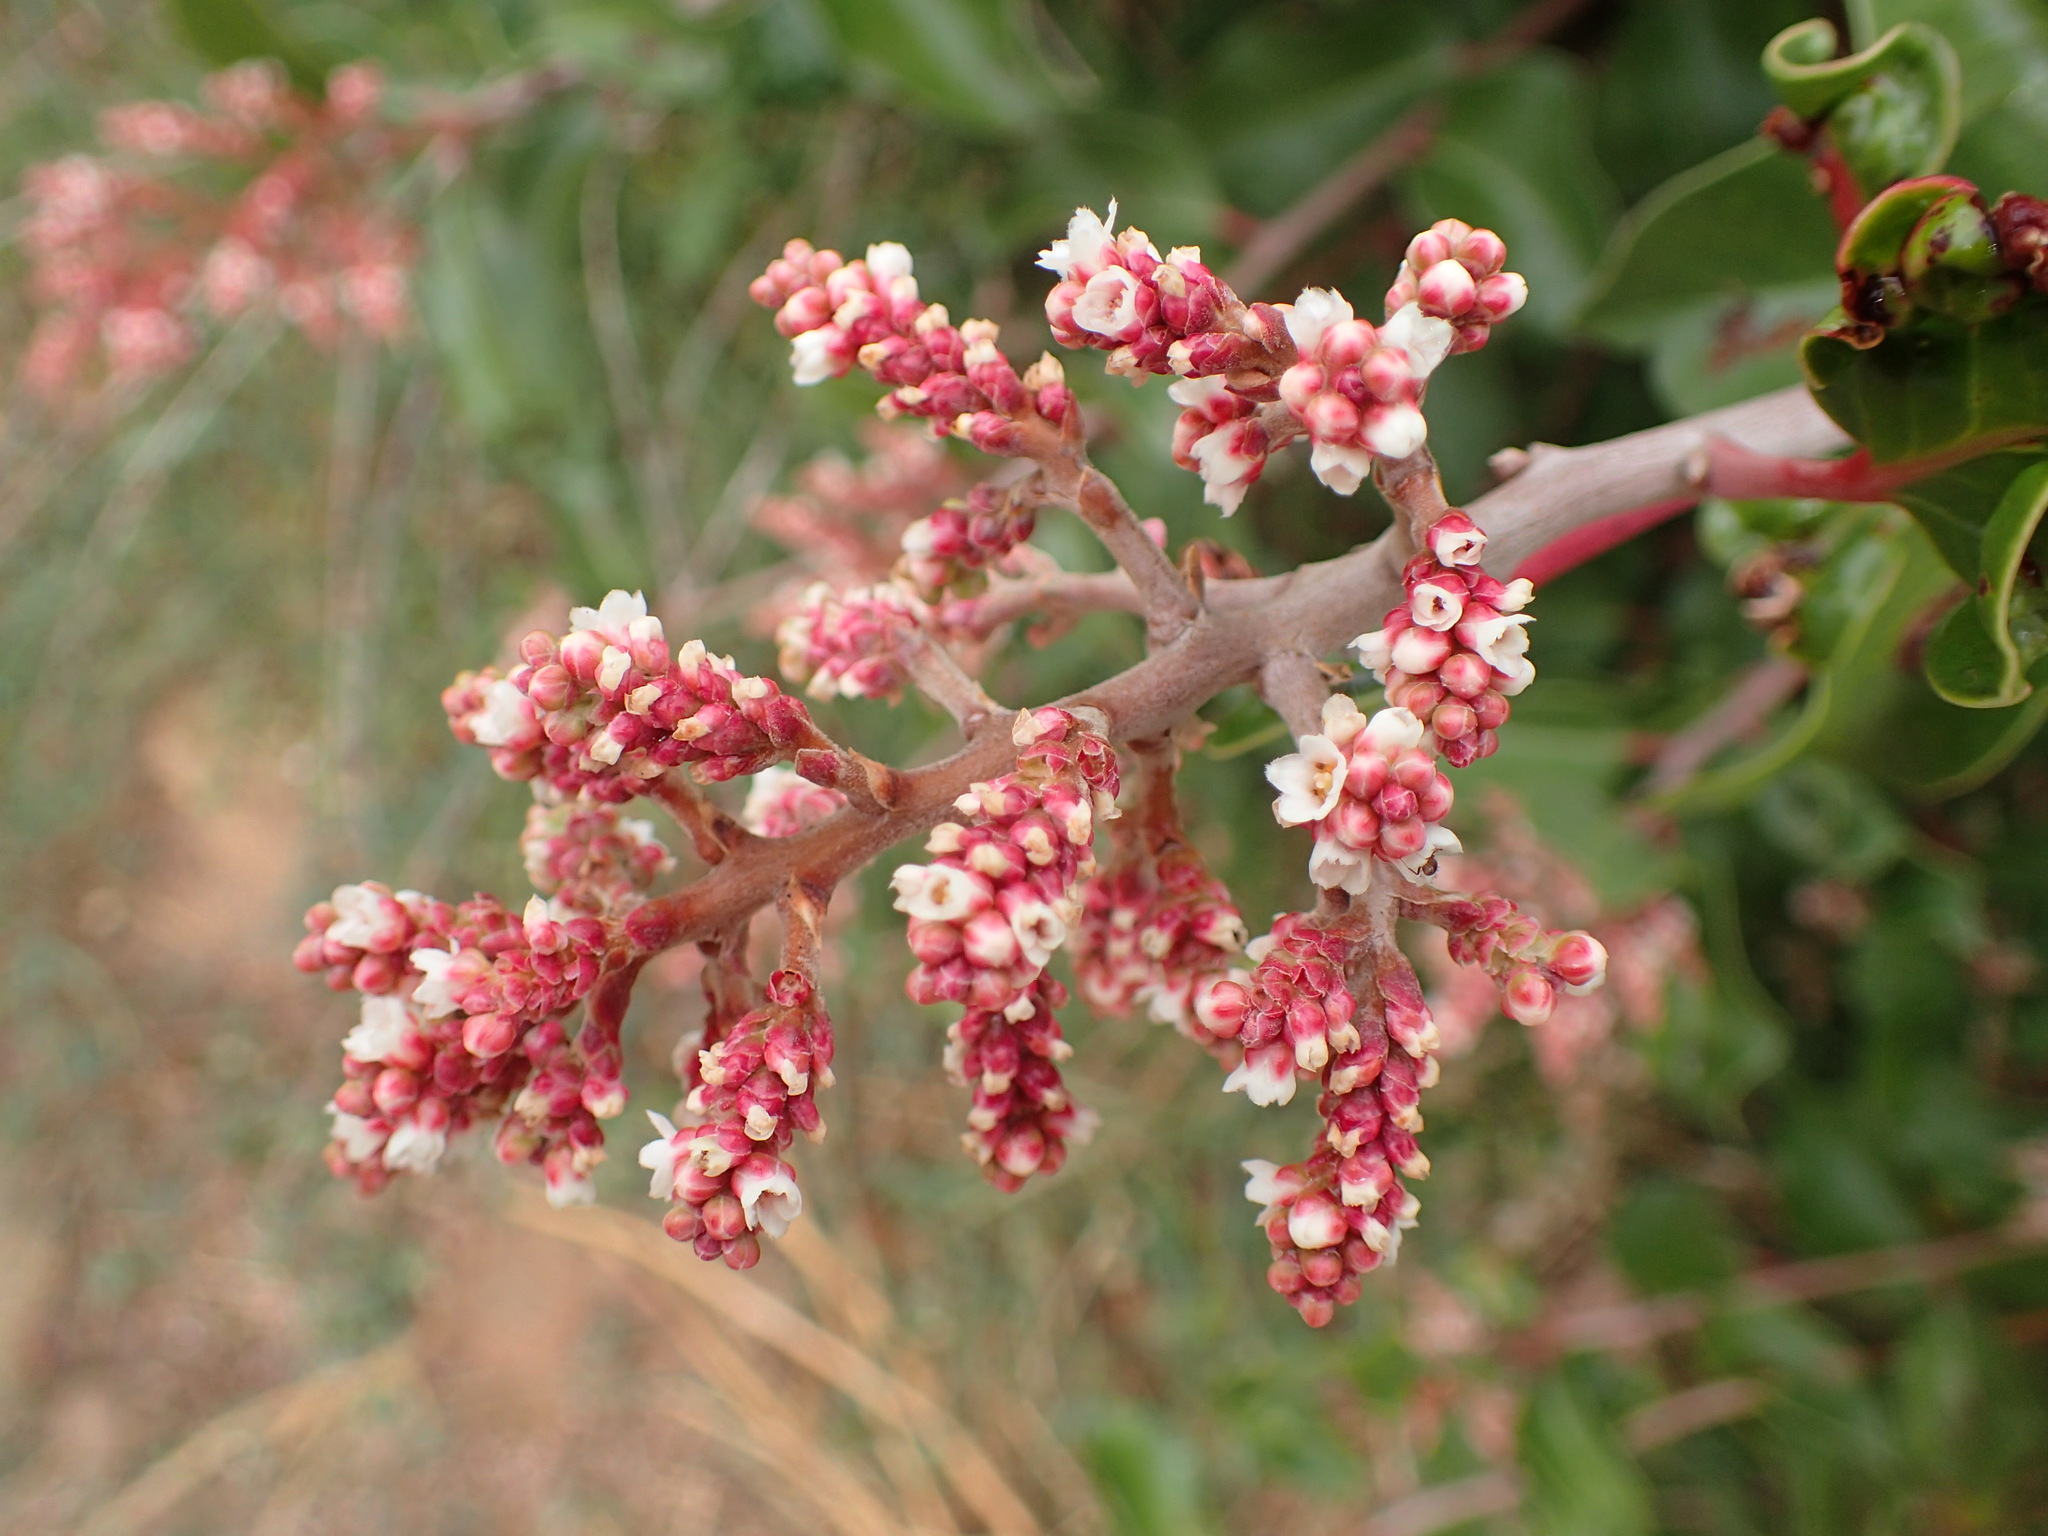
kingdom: Plantae
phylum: Tracheophyta
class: Magnoliopsida
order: Sapindales
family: Anacardiaceae
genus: Rhus
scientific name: Rhus ovata
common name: Sugar sumac
